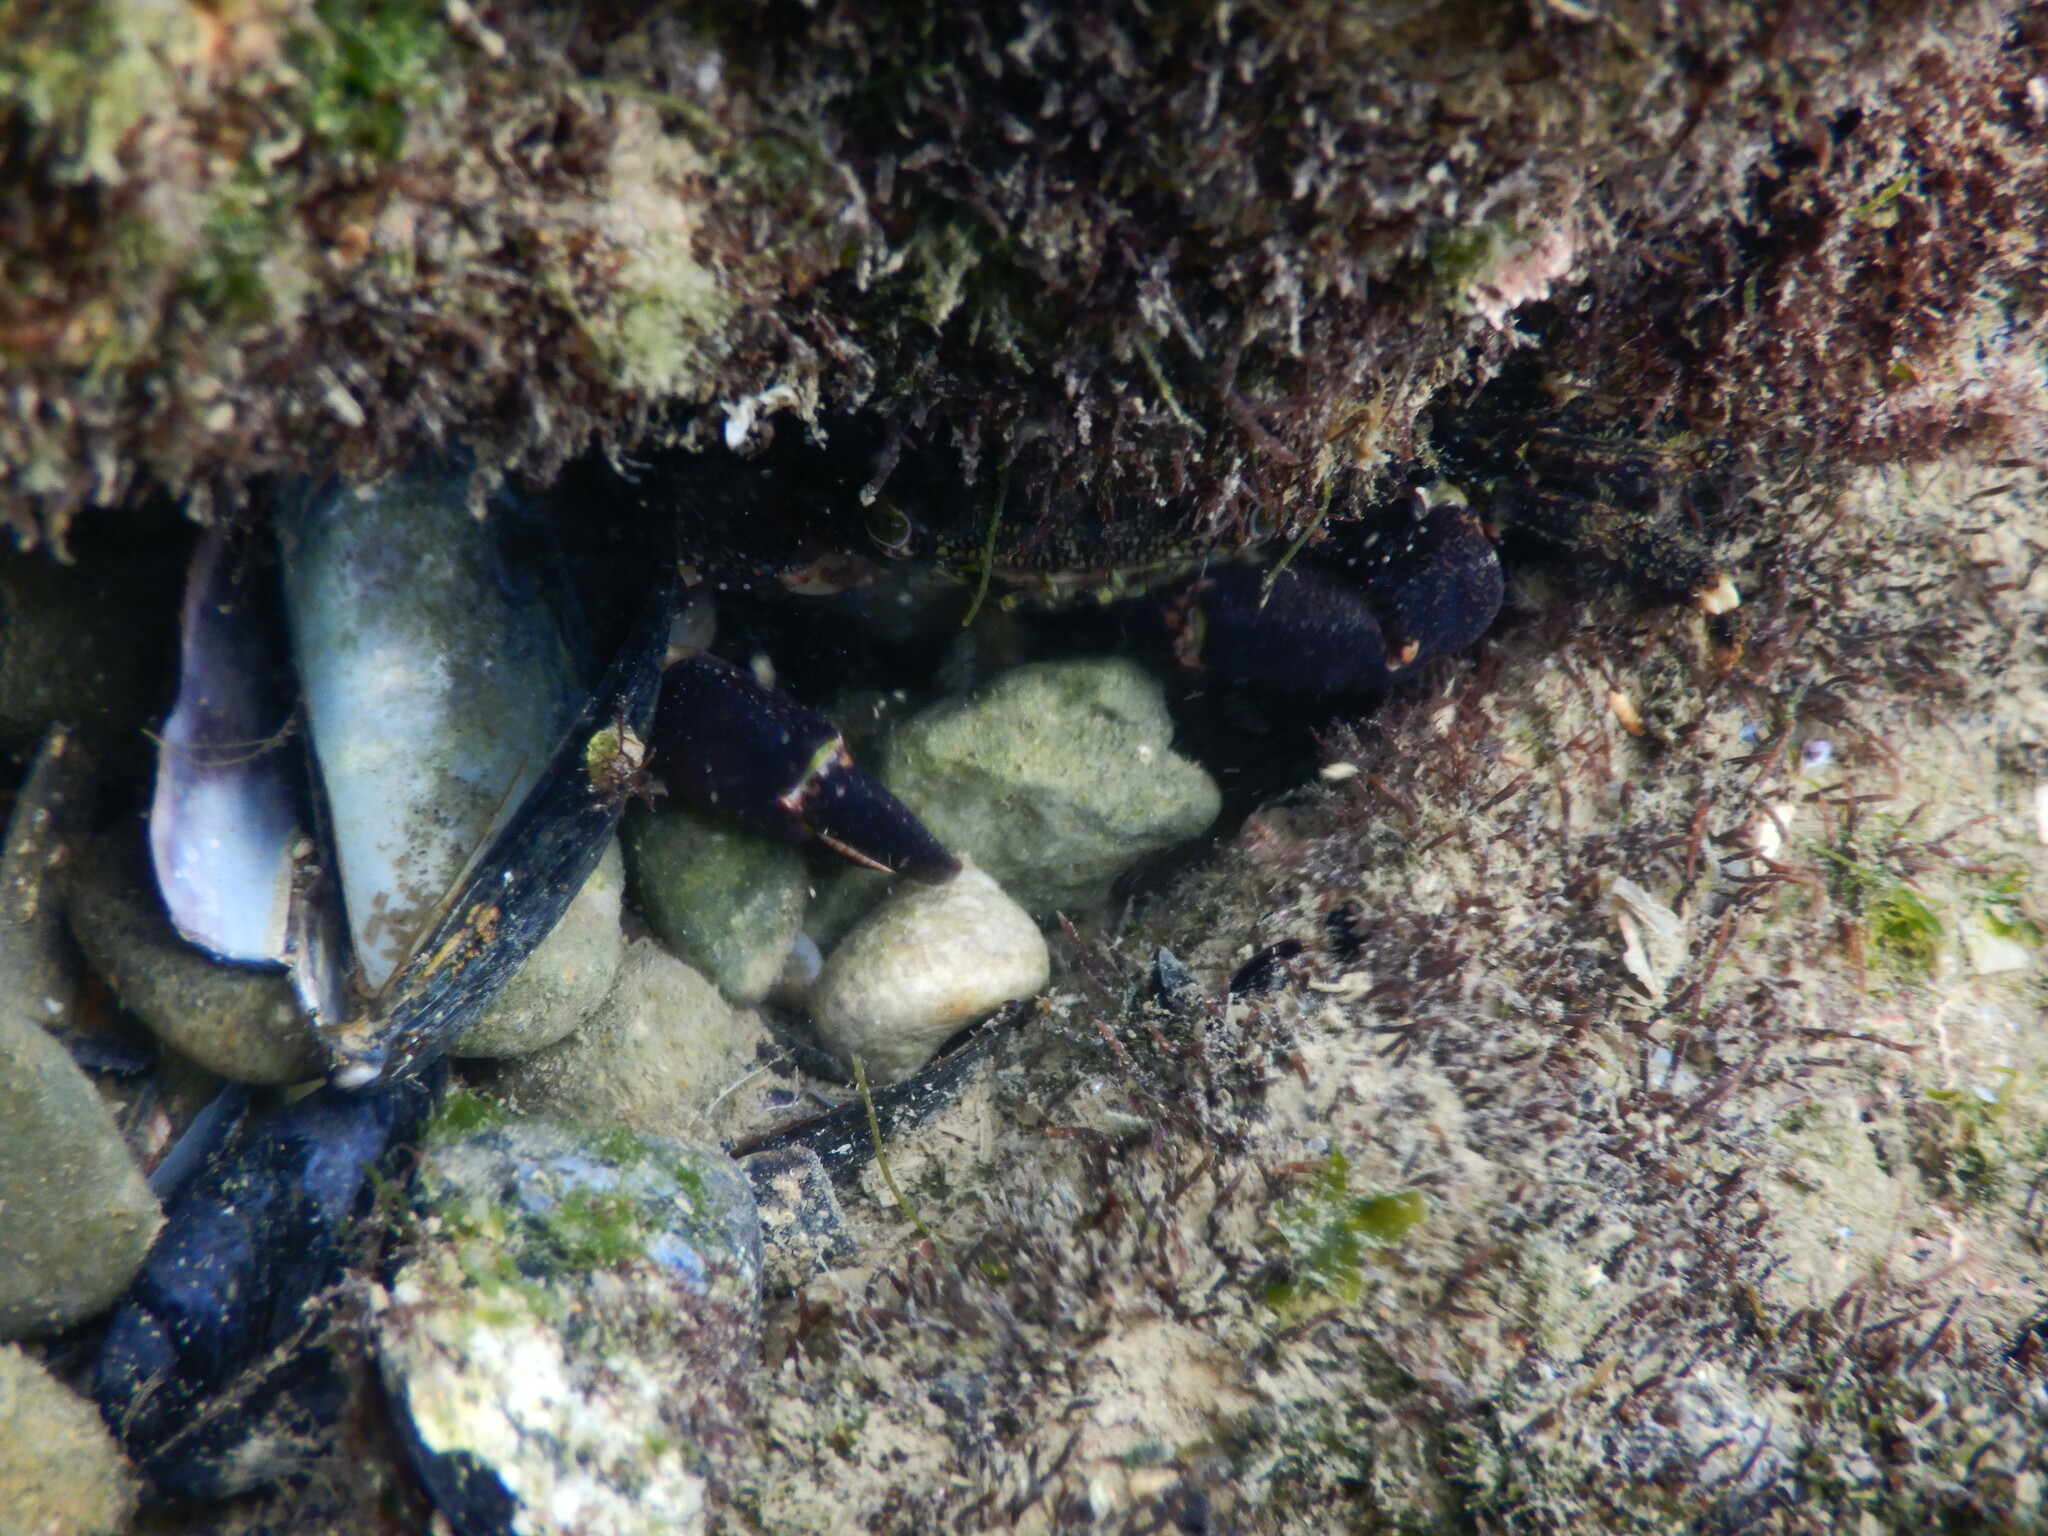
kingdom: Animalia
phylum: Arthropoda
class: Malacostraca
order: Decapoda
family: Grapsidae
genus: Pachygrapsus
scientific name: Pachygrapsus marmoratus
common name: Marbled rock crab
